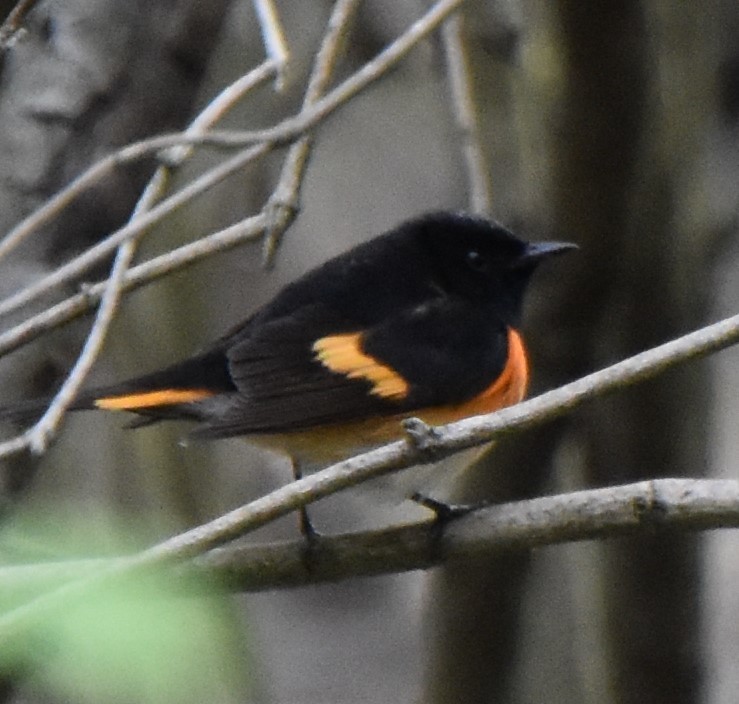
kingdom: Animalia
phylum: Chordata
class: Aves
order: Passeriformes
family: Parulidae
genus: Setophaga
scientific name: Setophaga ruticilla
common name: American redstart
